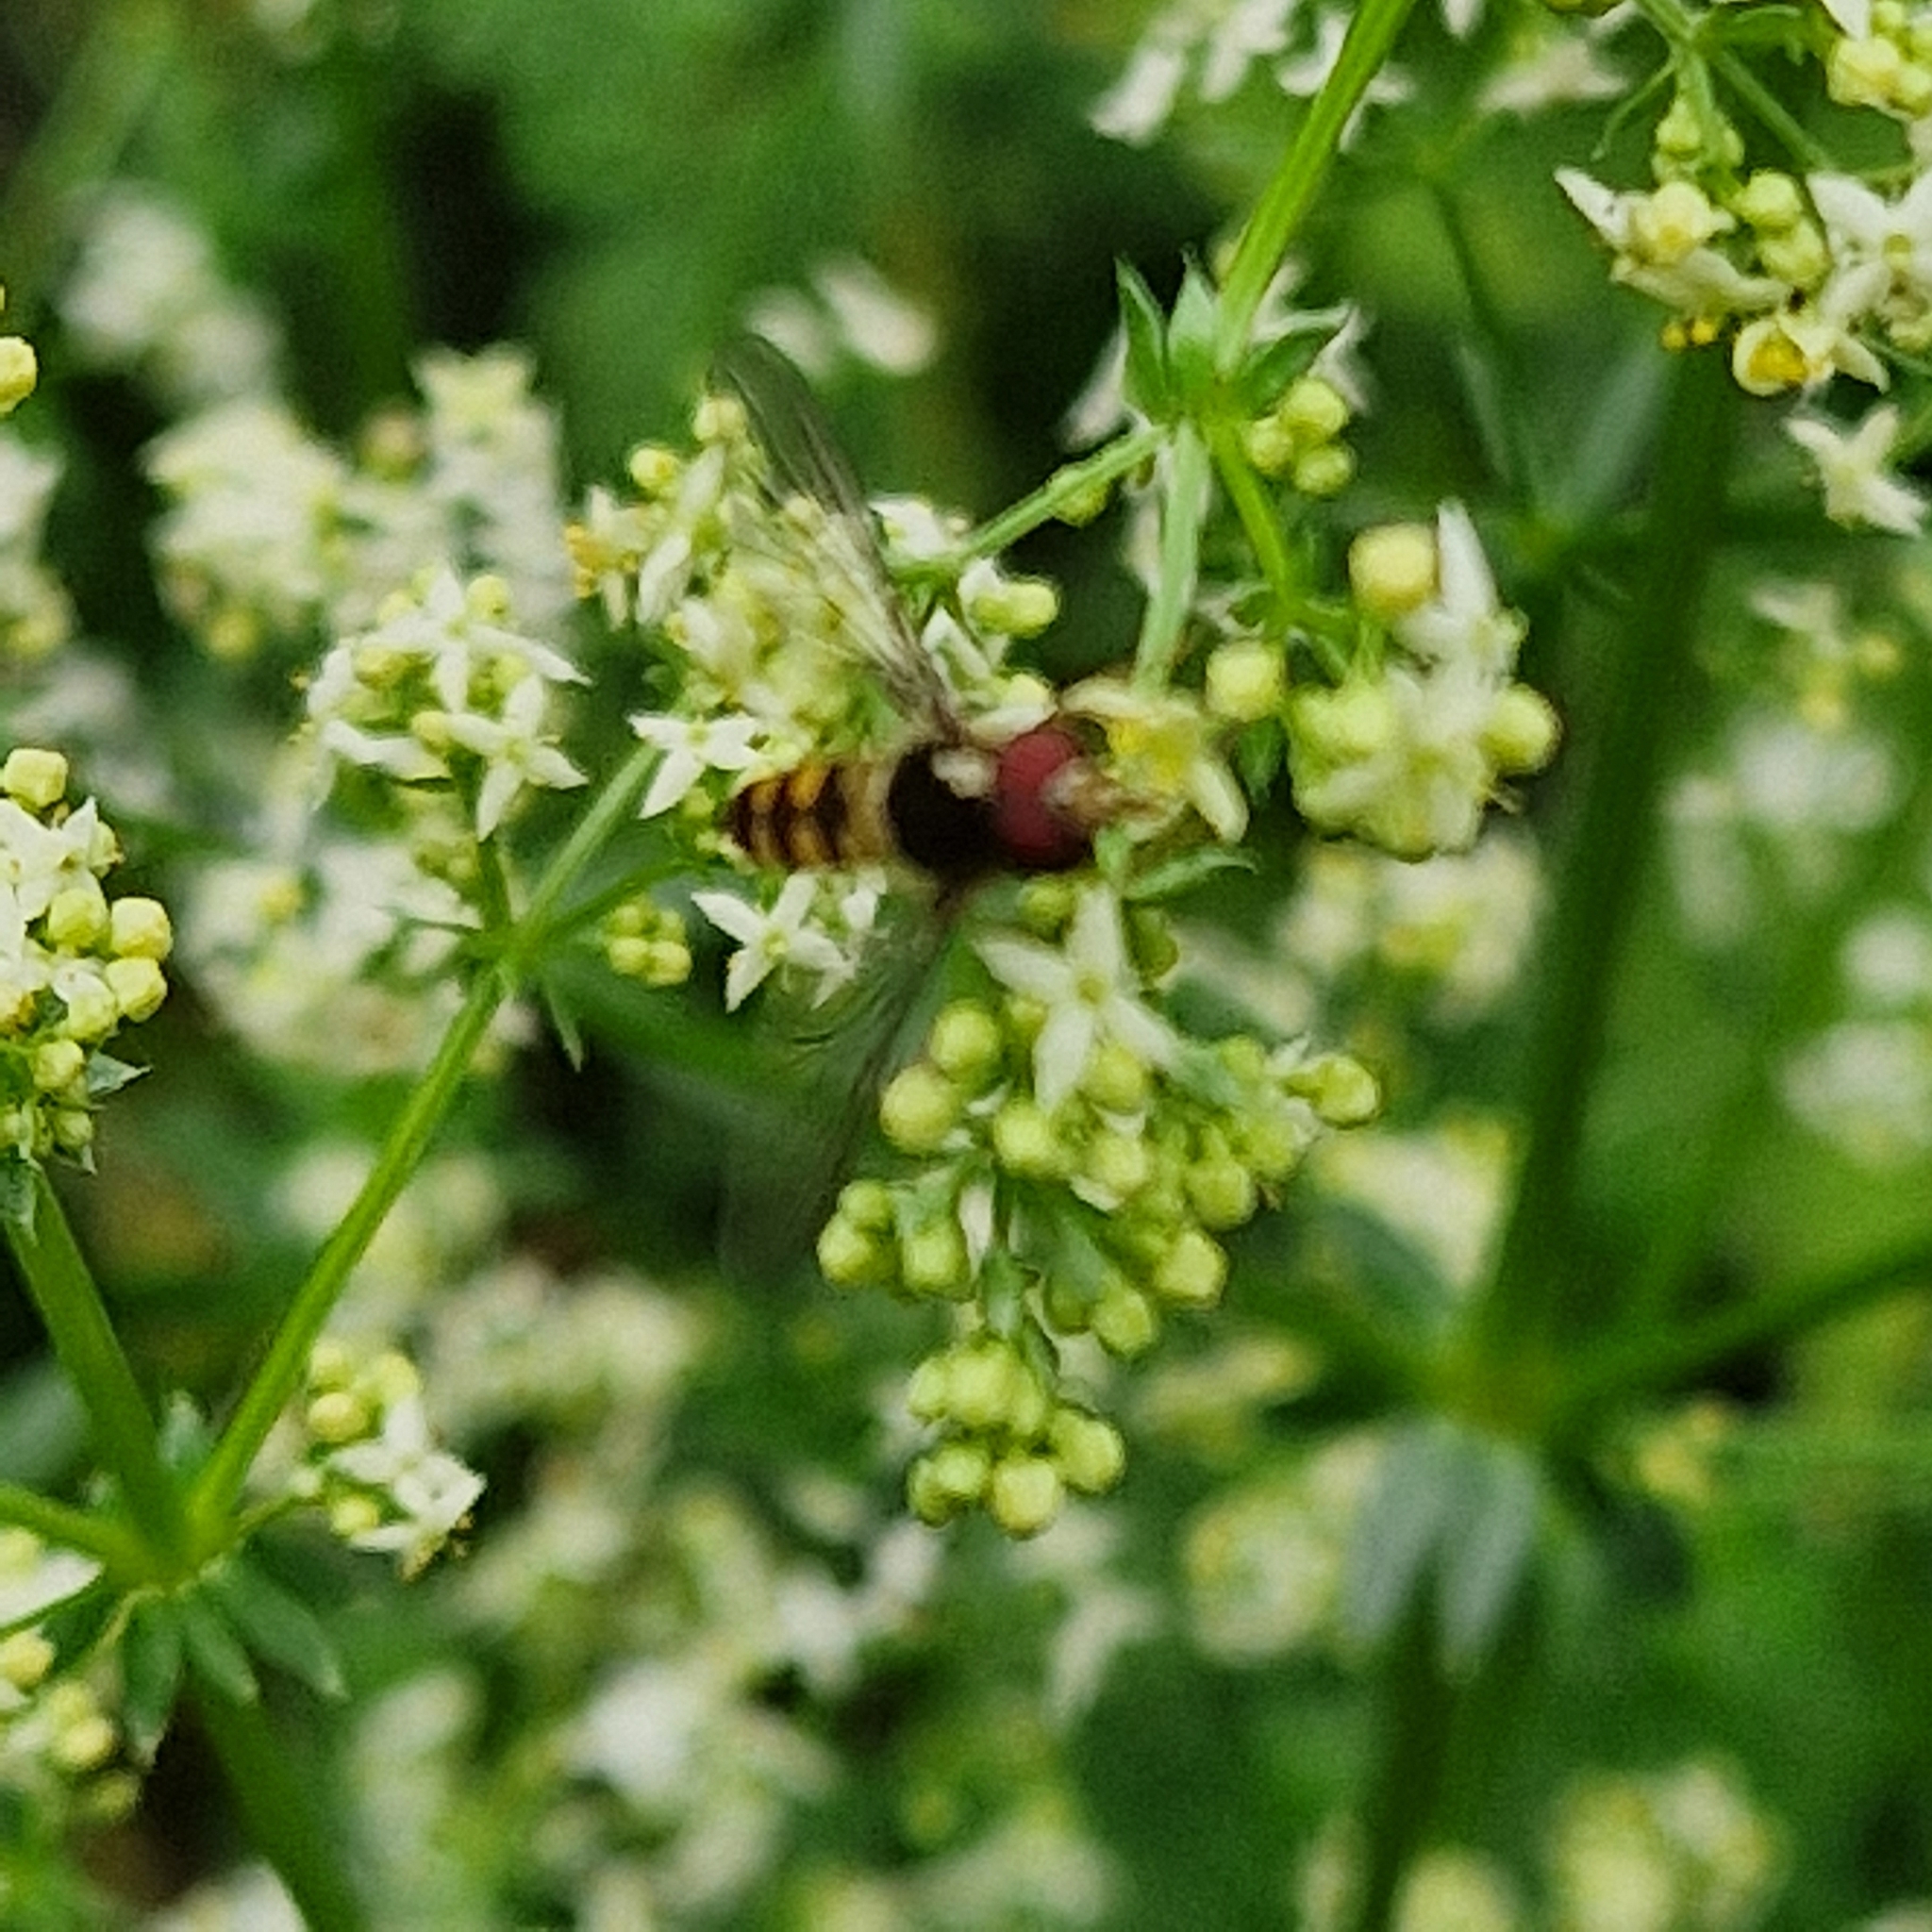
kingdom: Animalia
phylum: Arthropoda
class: Insecta
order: Diptera
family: Syrphidae
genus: Meliscaeva
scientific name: Meliscaeva auricollis
